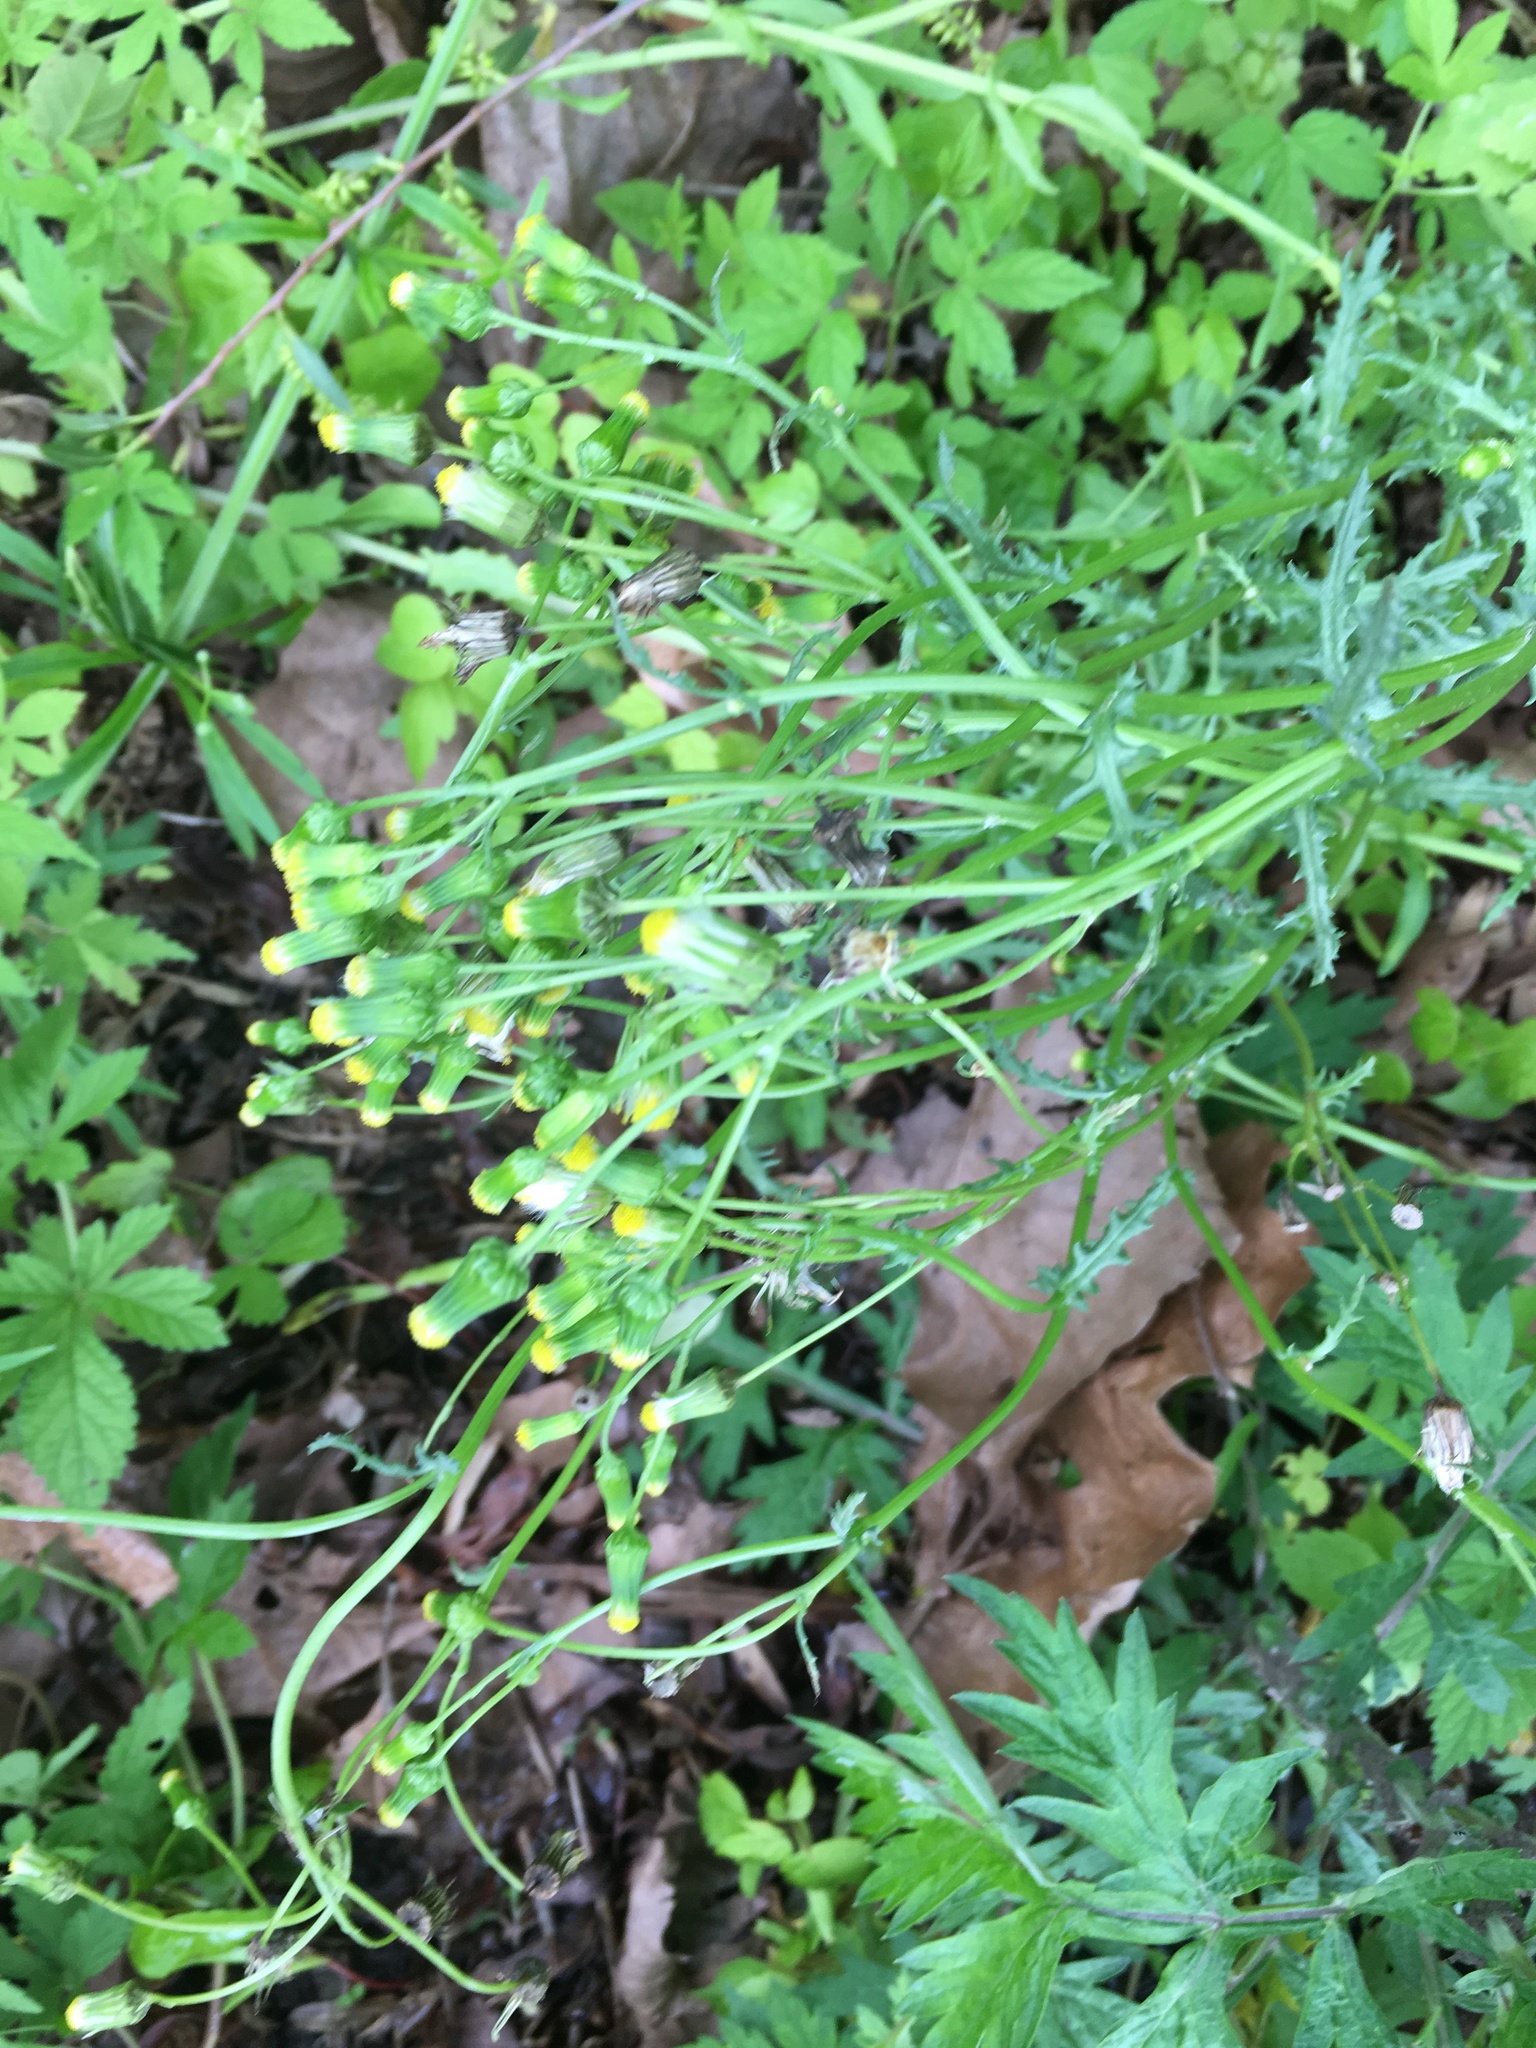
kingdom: Plantae
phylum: Tracheophyta
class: Magnoliopsida
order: Asterales
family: Asteraceae
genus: Senecio
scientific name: Senecio vulgaris
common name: Old-man-in-the-spring
